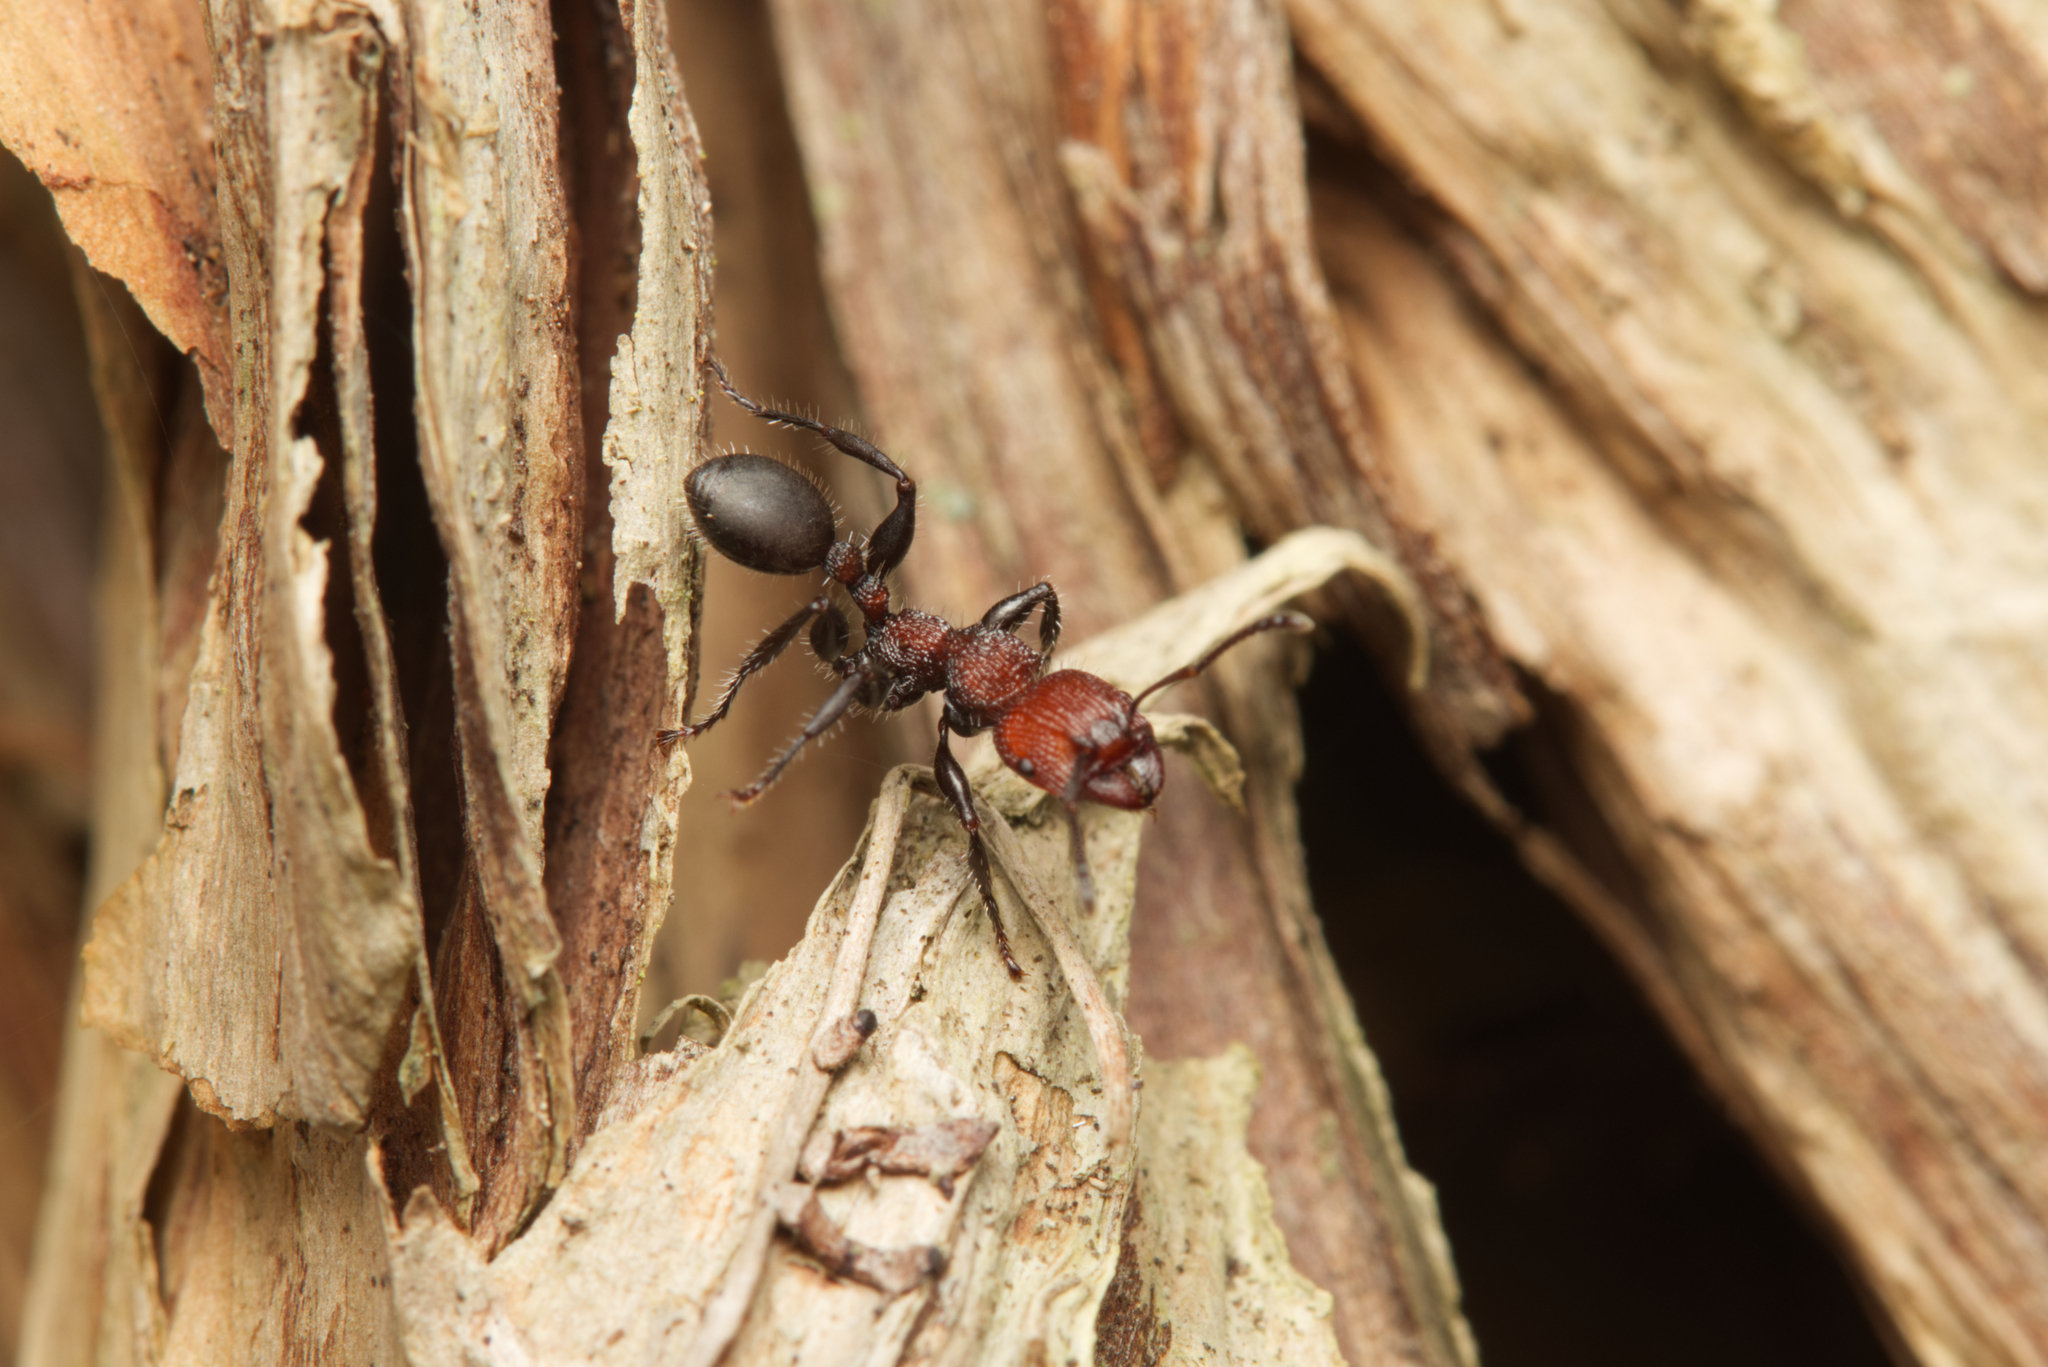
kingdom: Animalia
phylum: Arthropoda
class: Insecta
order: Hymenoptera
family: Formicidae
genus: Podomyrma
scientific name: Podomyrma micans
